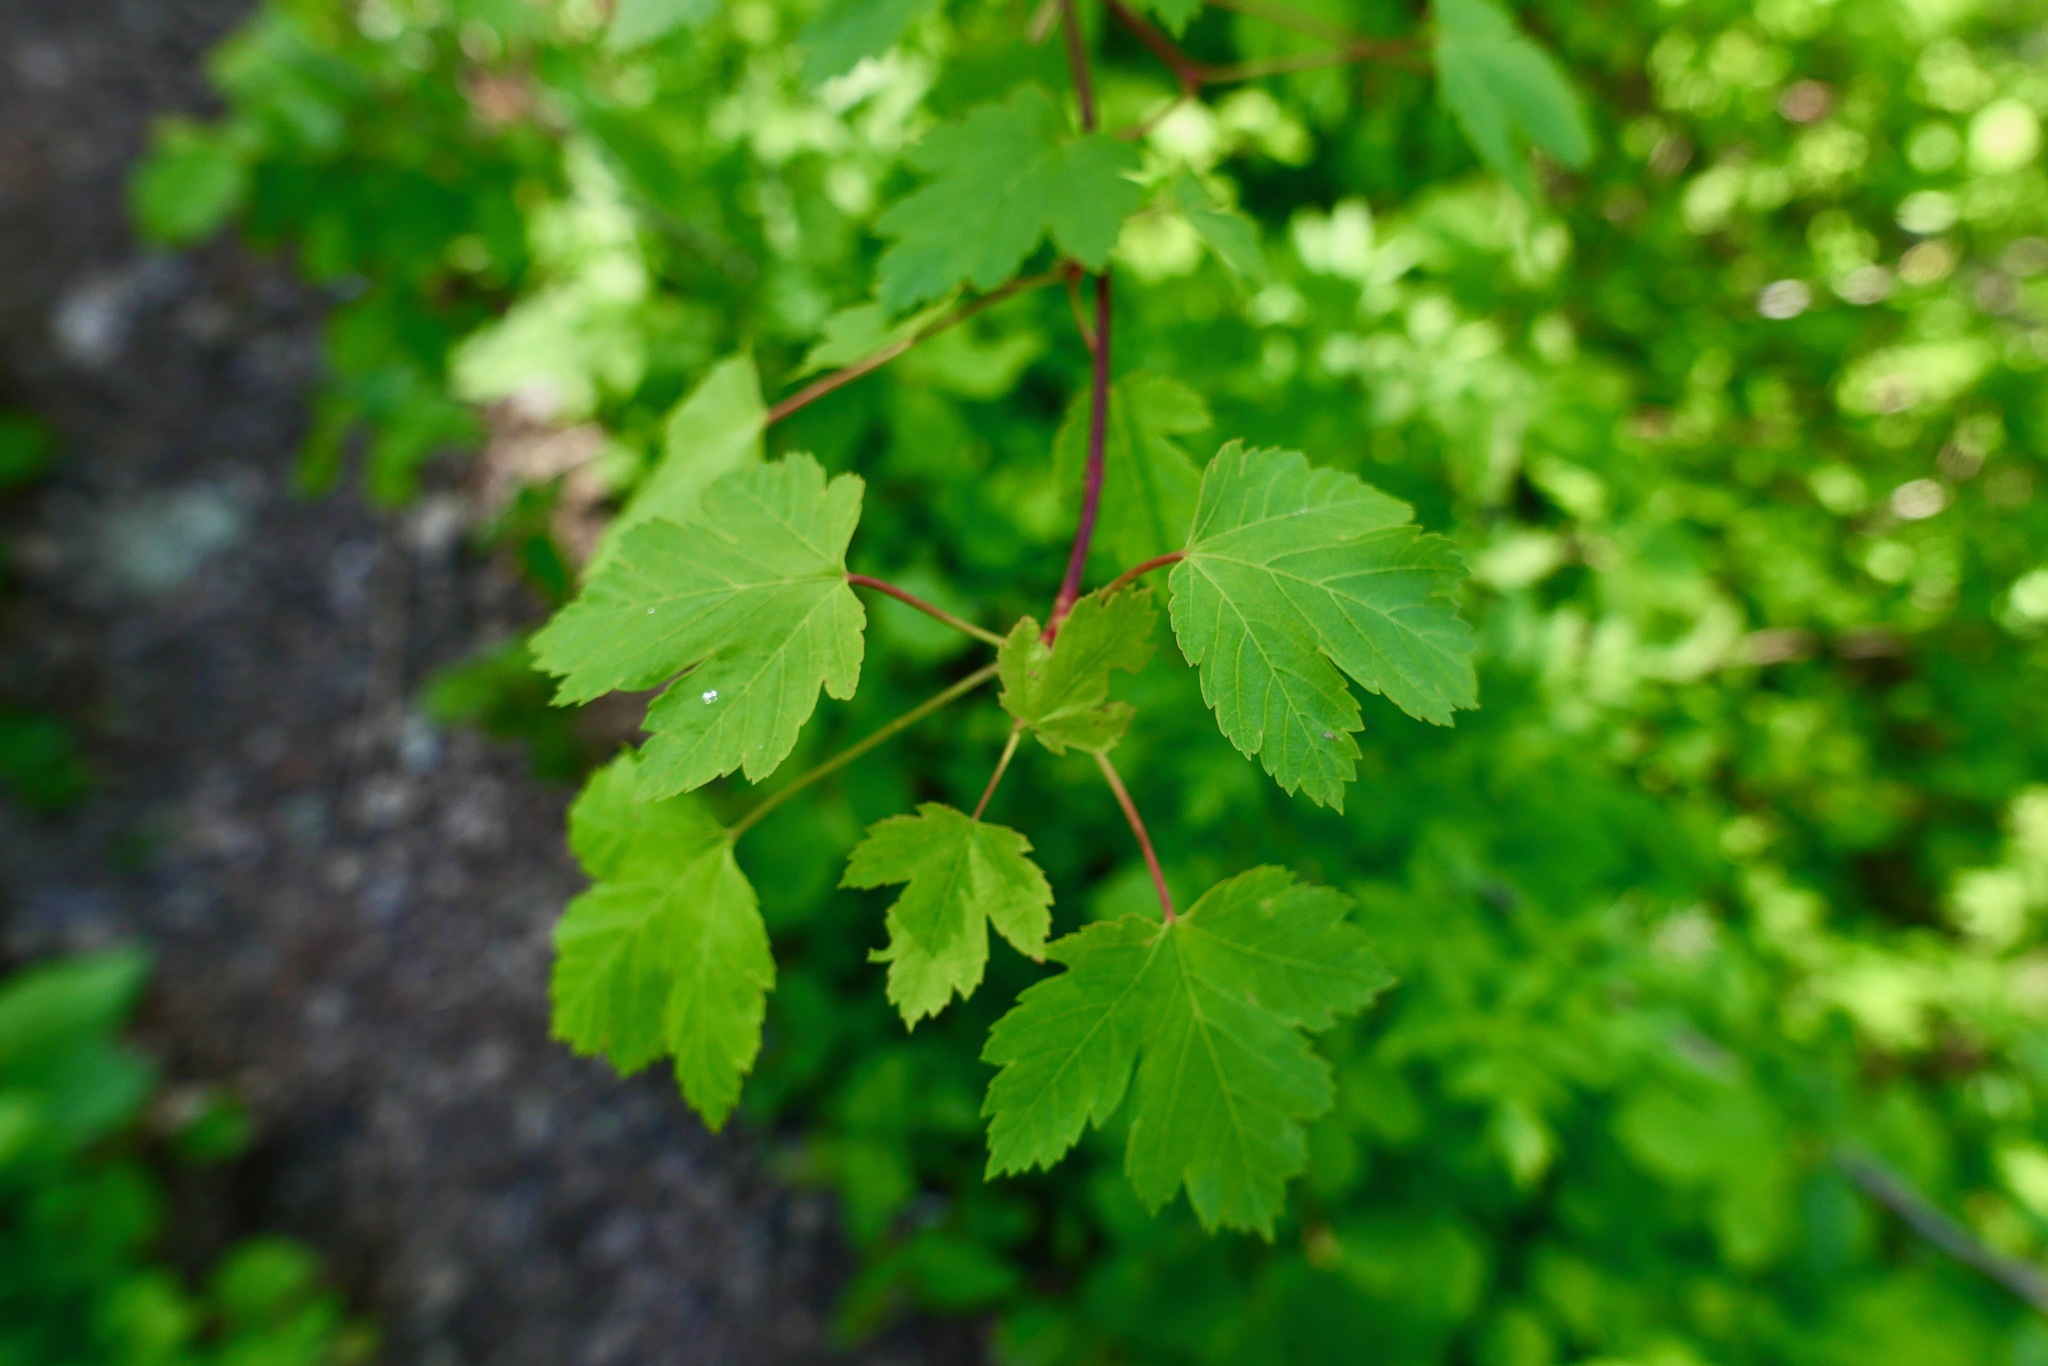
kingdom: Plantae
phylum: Tracheophyta
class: Magnoliopsida
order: Sapindales
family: Sapindaceae
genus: Acer
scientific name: Acer glabrum
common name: Rocky mountain maple
